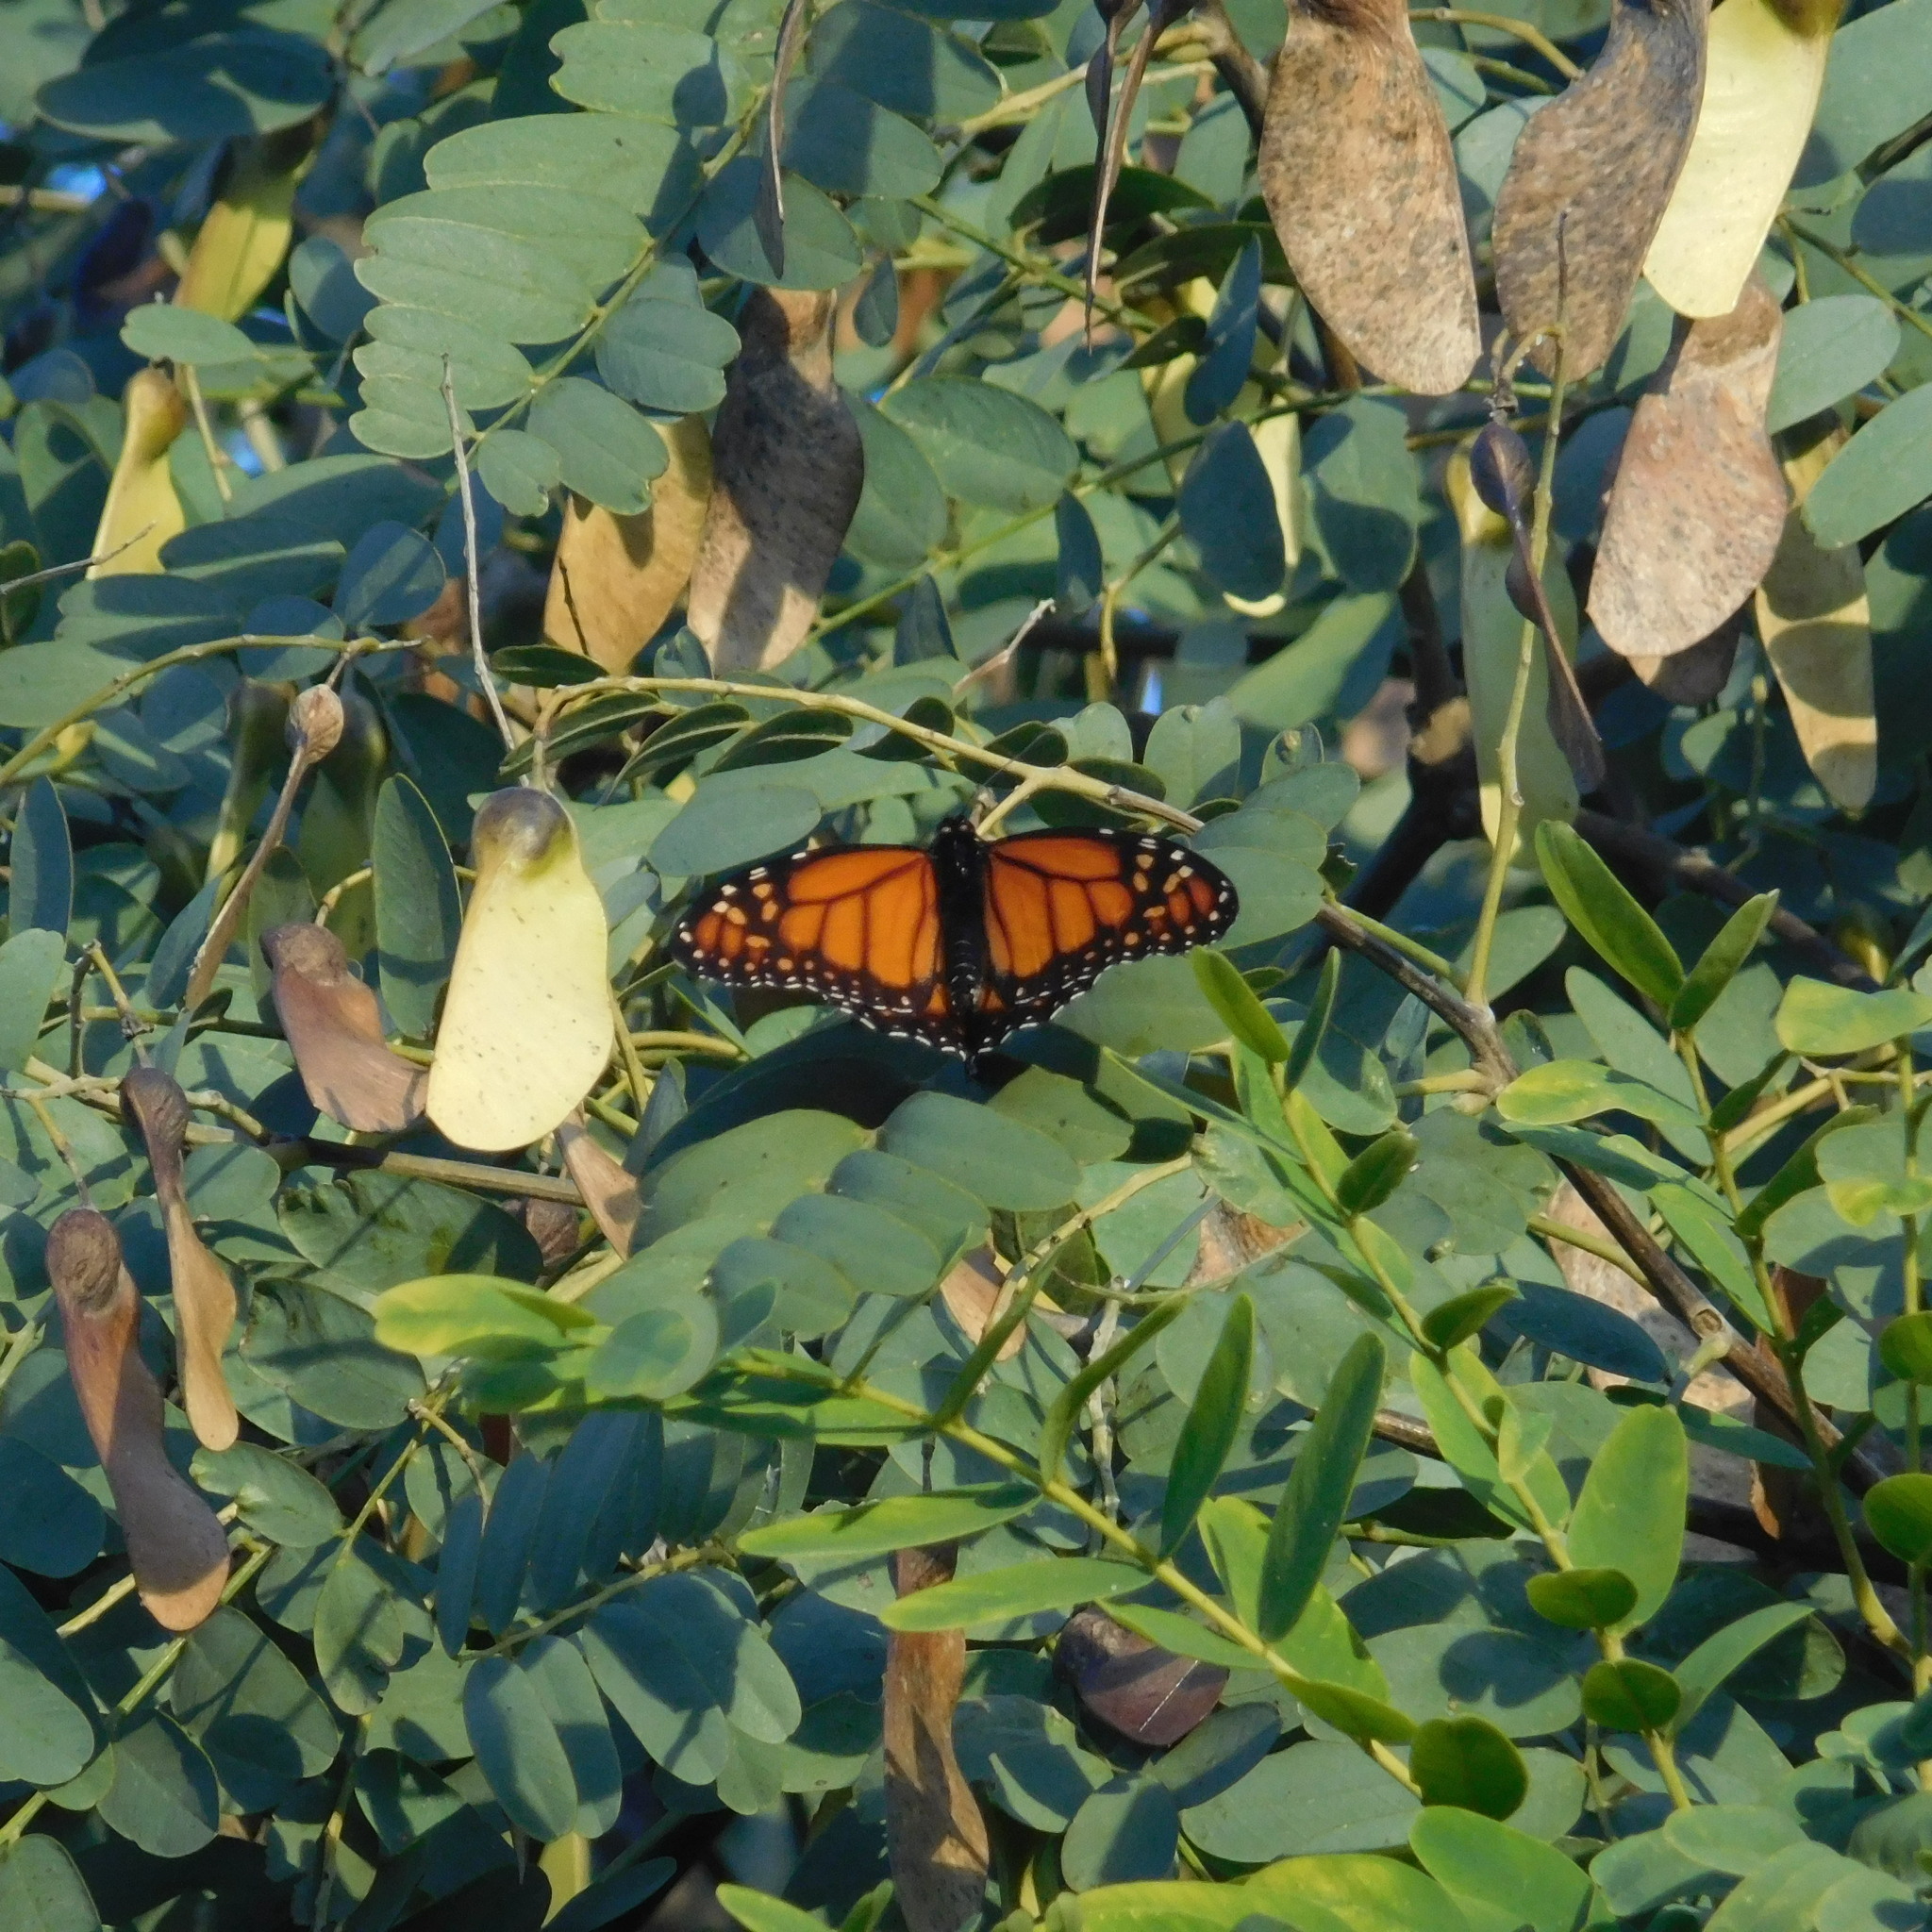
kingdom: Animalia
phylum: Arthropoda
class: Insecta
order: Lepidoptera
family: Nymphalidae
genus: Danaus
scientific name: Danaus erippus
